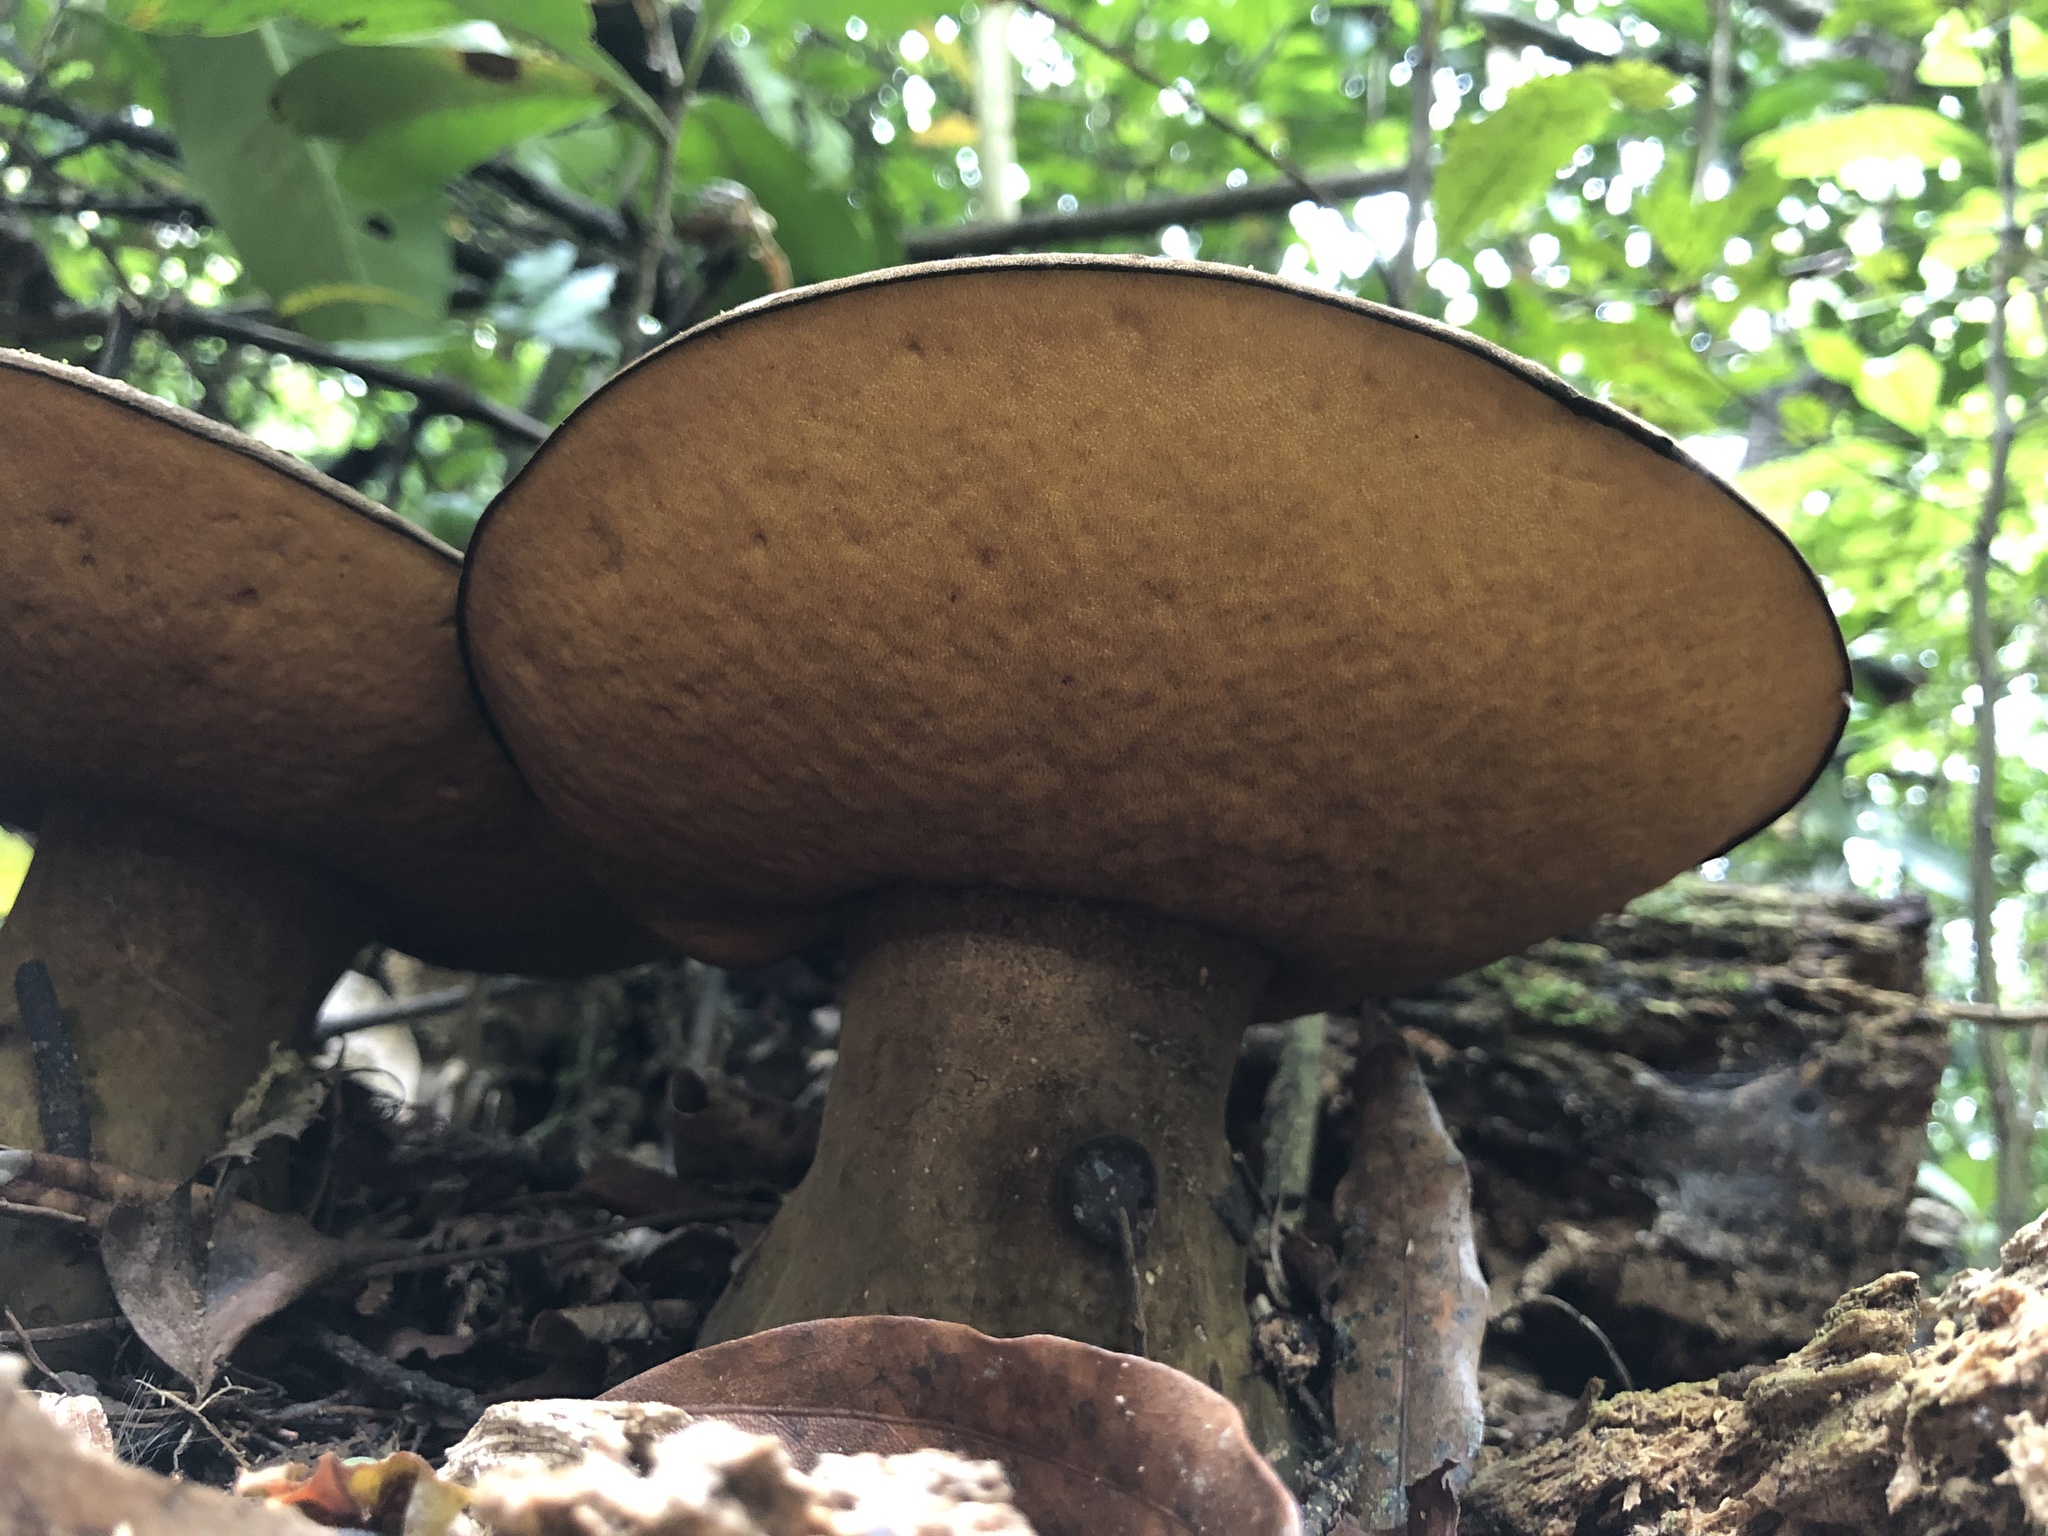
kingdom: Fungi
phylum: Basidiomycota
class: Agaricomycetes
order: Boletales
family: Boletinellaceae
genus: Phlebopus
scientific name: Phlebopus marginatus
